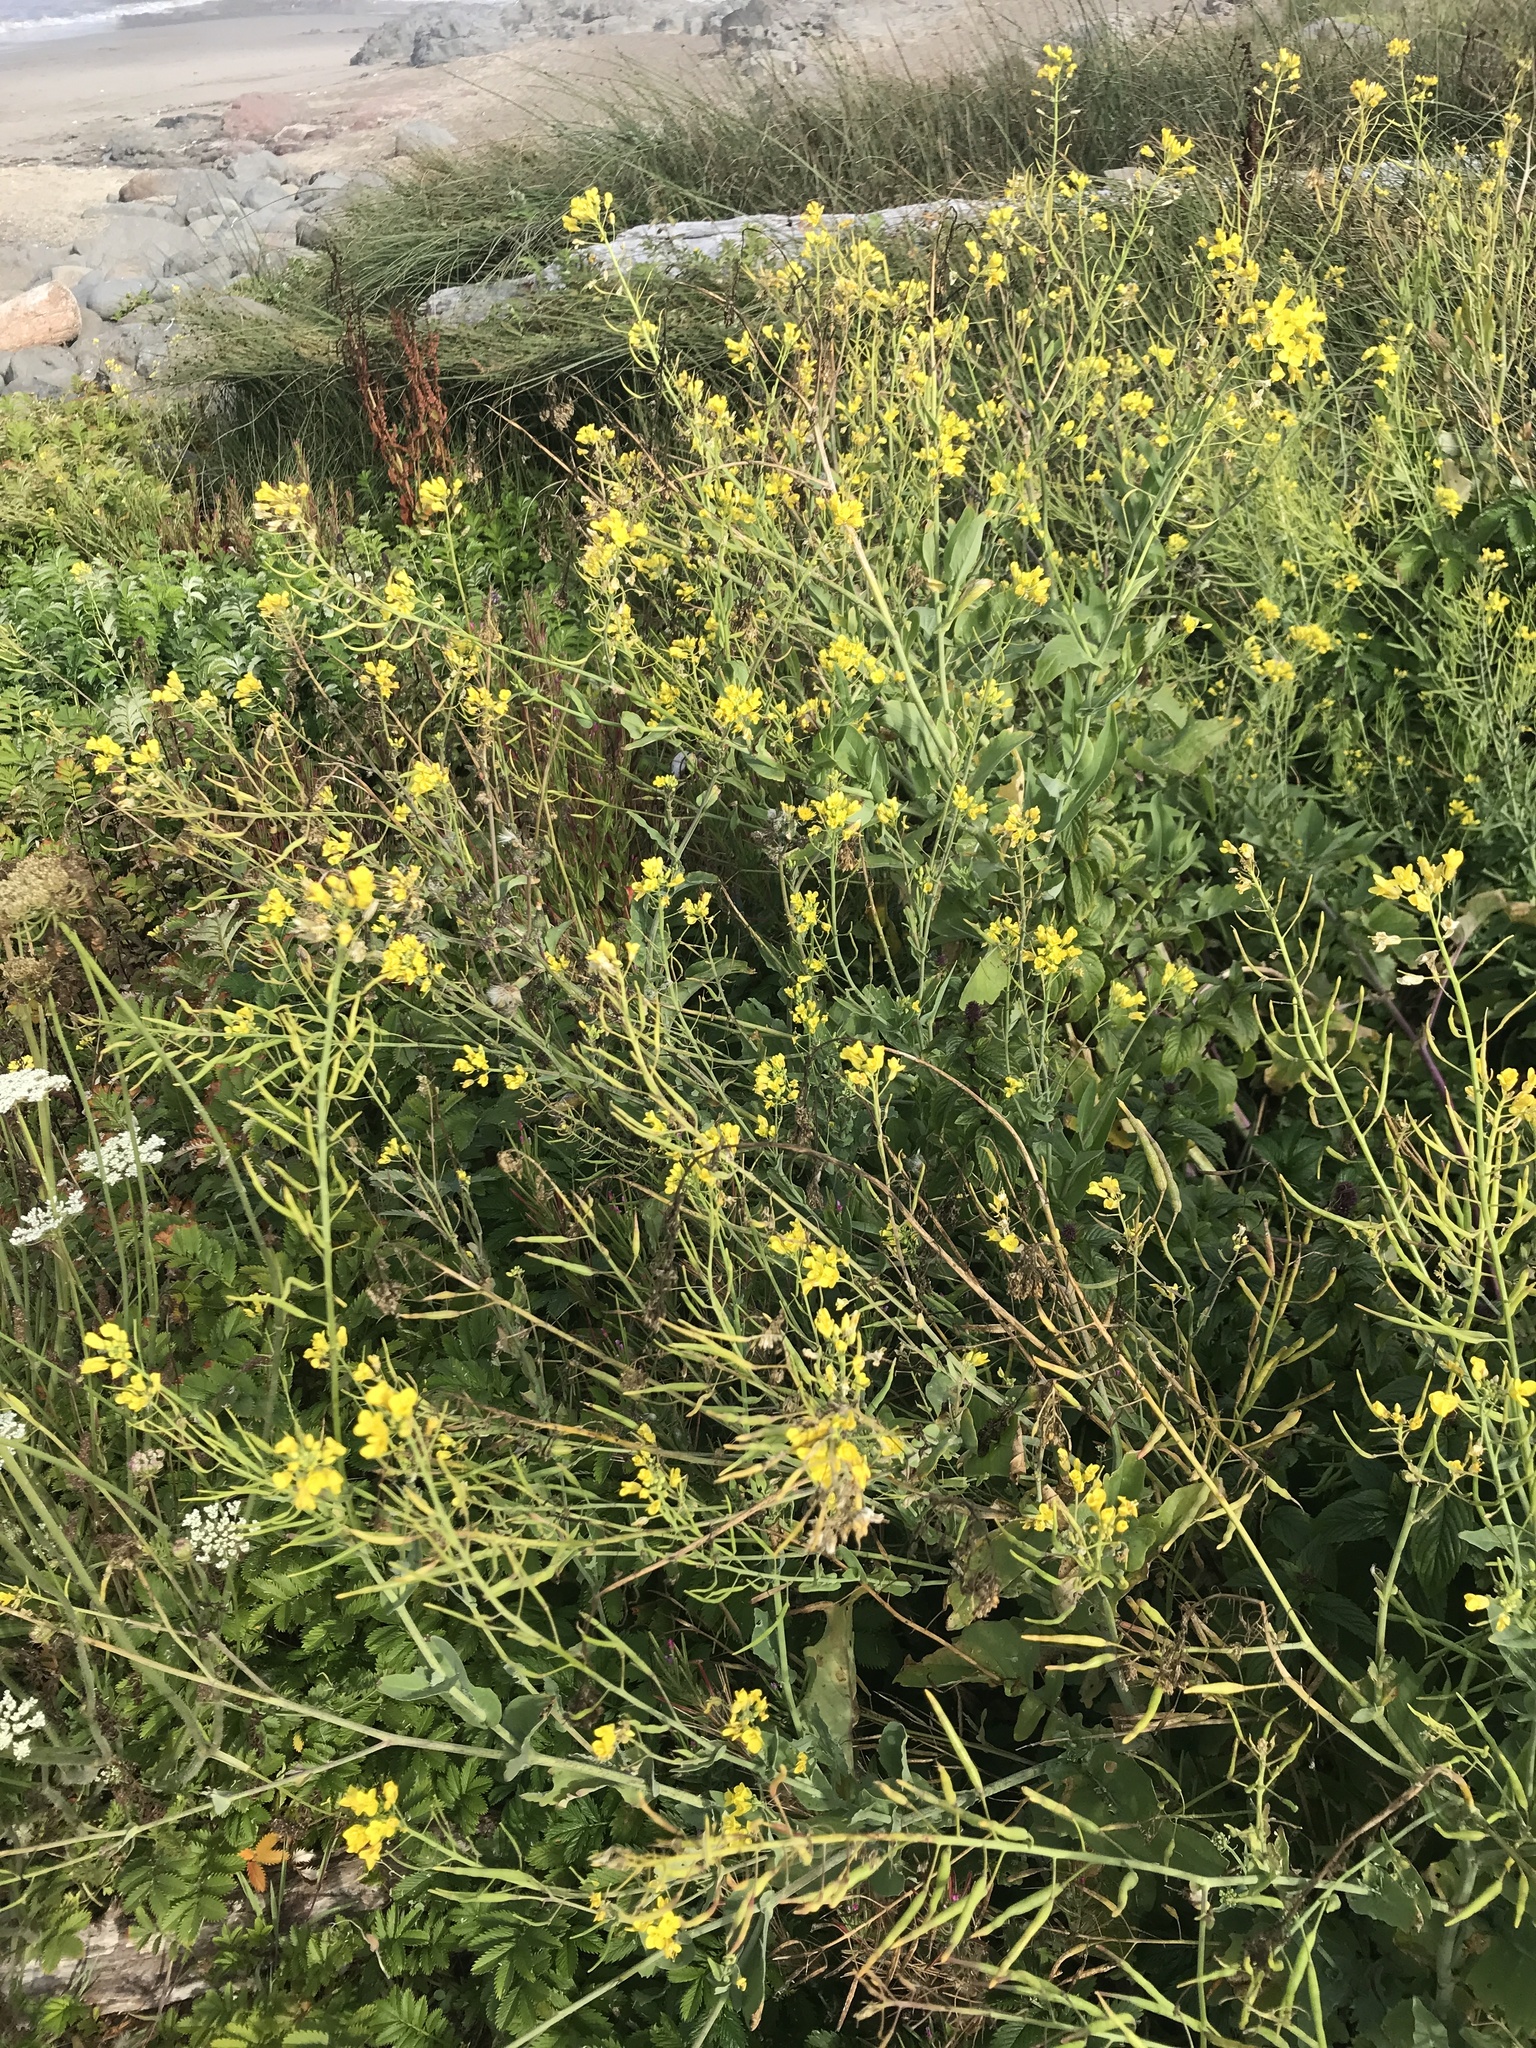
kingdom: Plantae
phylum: Tracheophyta
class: Magnoliopsida
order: Brassicales
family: Brassicaceae
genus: Brassica
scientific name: Brassica rapa
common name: Field mustard
